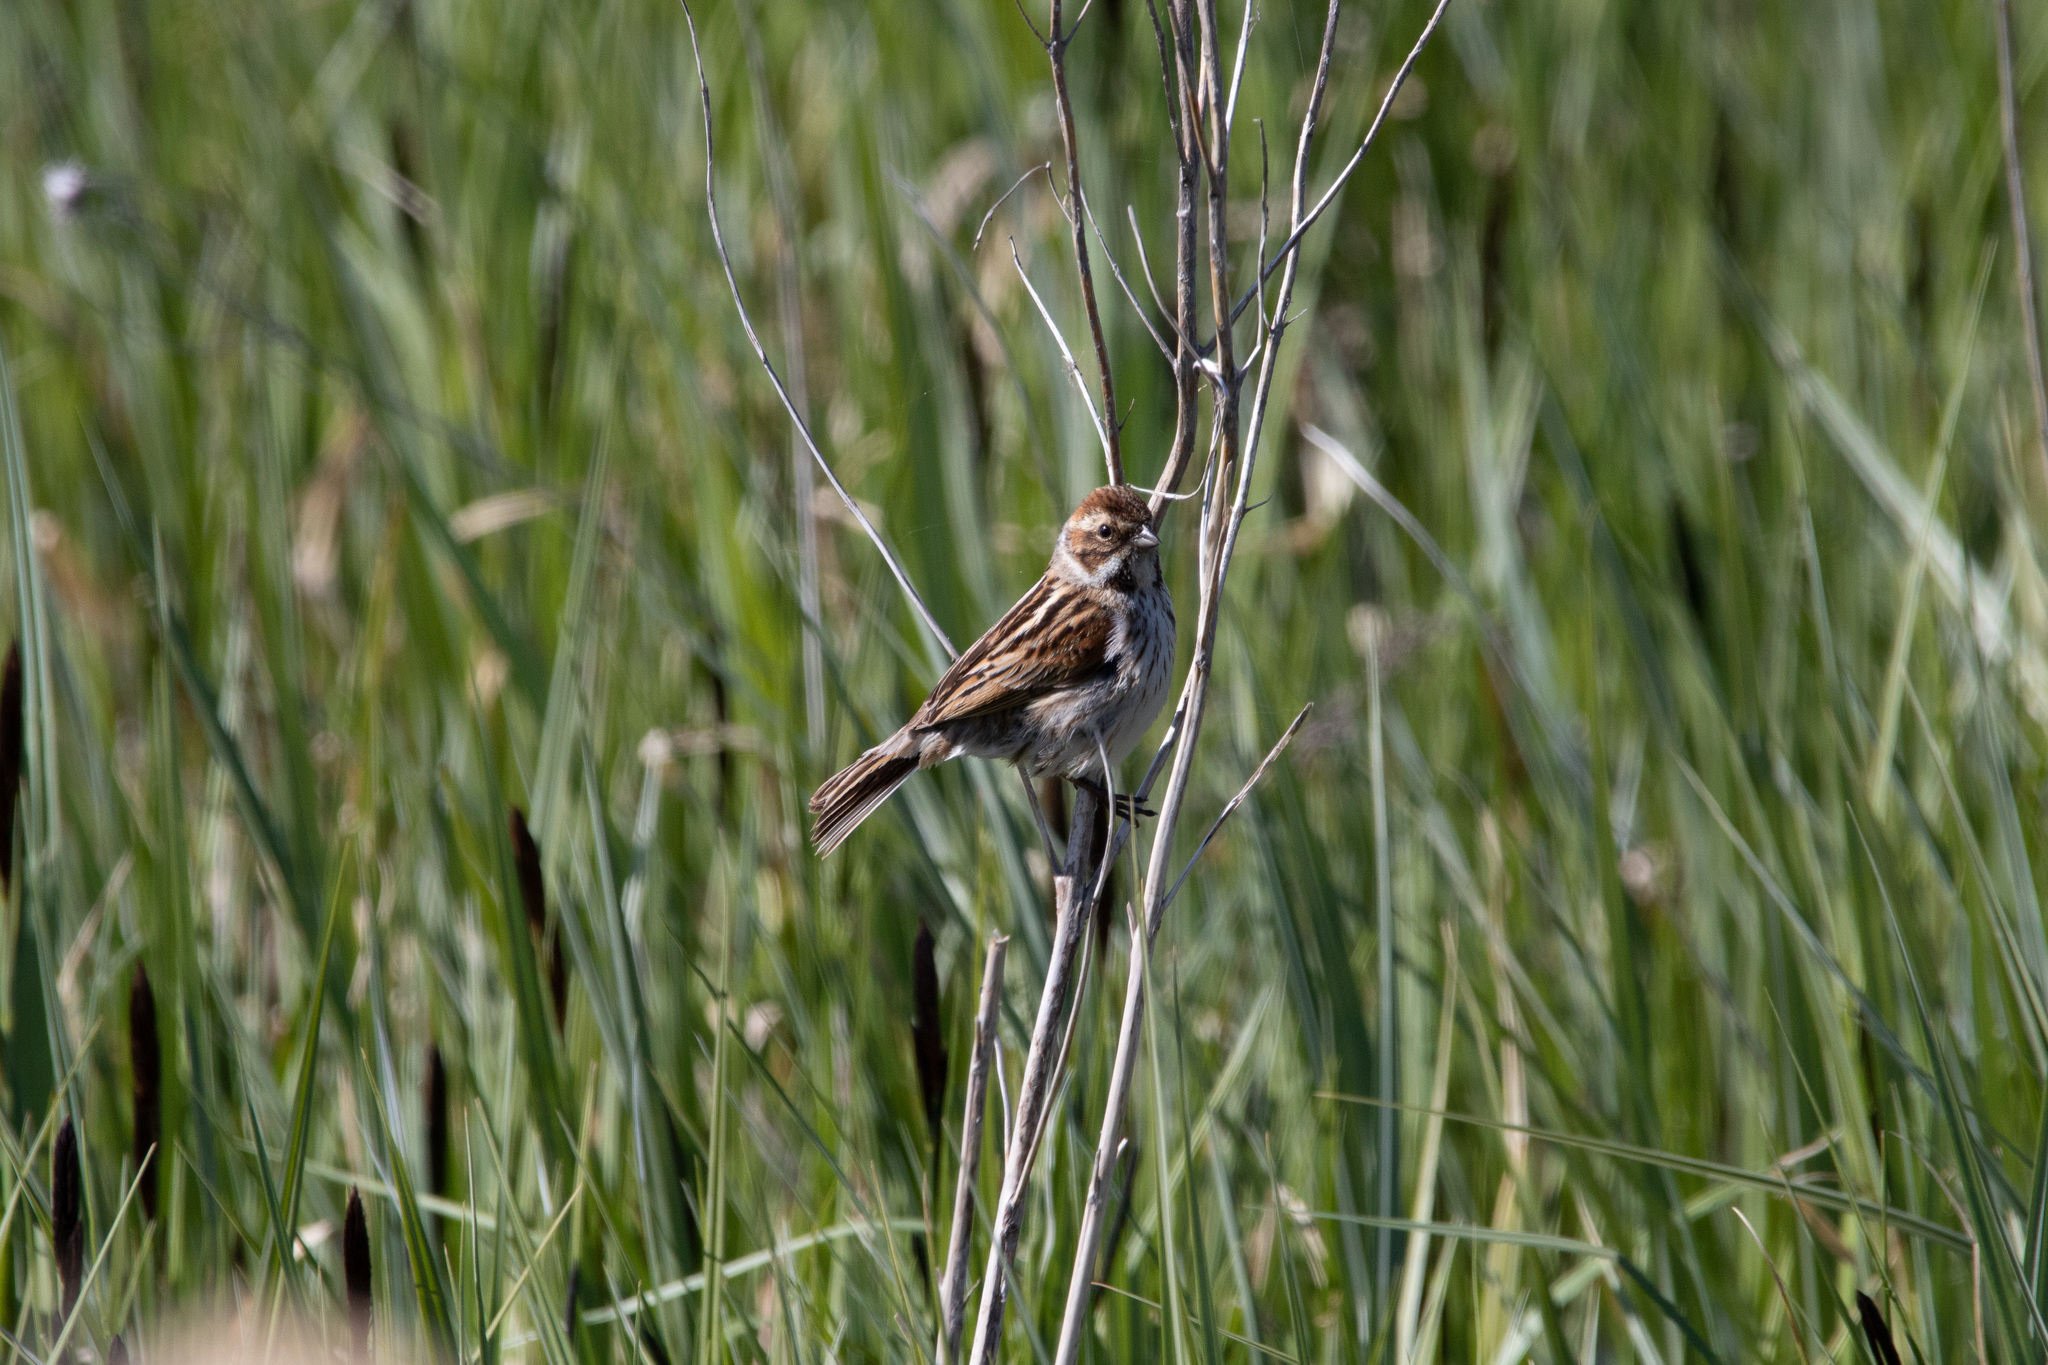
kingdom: Animalia
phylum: Chordata
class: Aves
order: Passeriformes
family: Emberizidae
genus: Emberiza
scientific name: Emberiza schoeniclus
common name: Reed bunting
